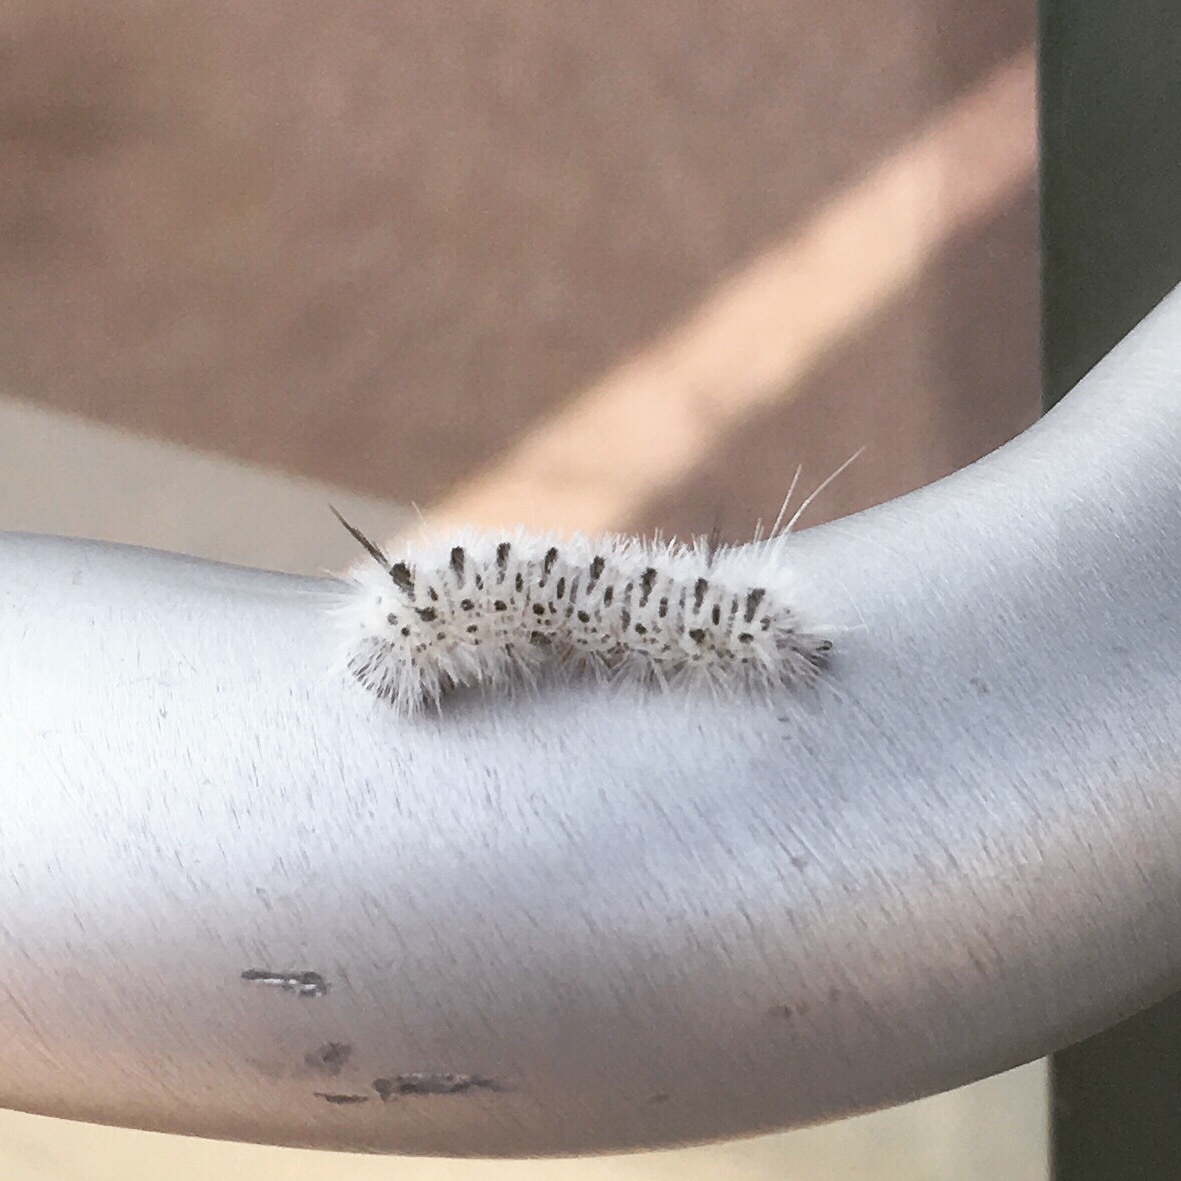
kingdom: Animalia
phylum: Arthropoda
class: Insecta
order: Lepidoptera
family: Erebidae
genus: Lophocampa
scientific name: Lophocampa caryae
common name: Hickory tussock moth
